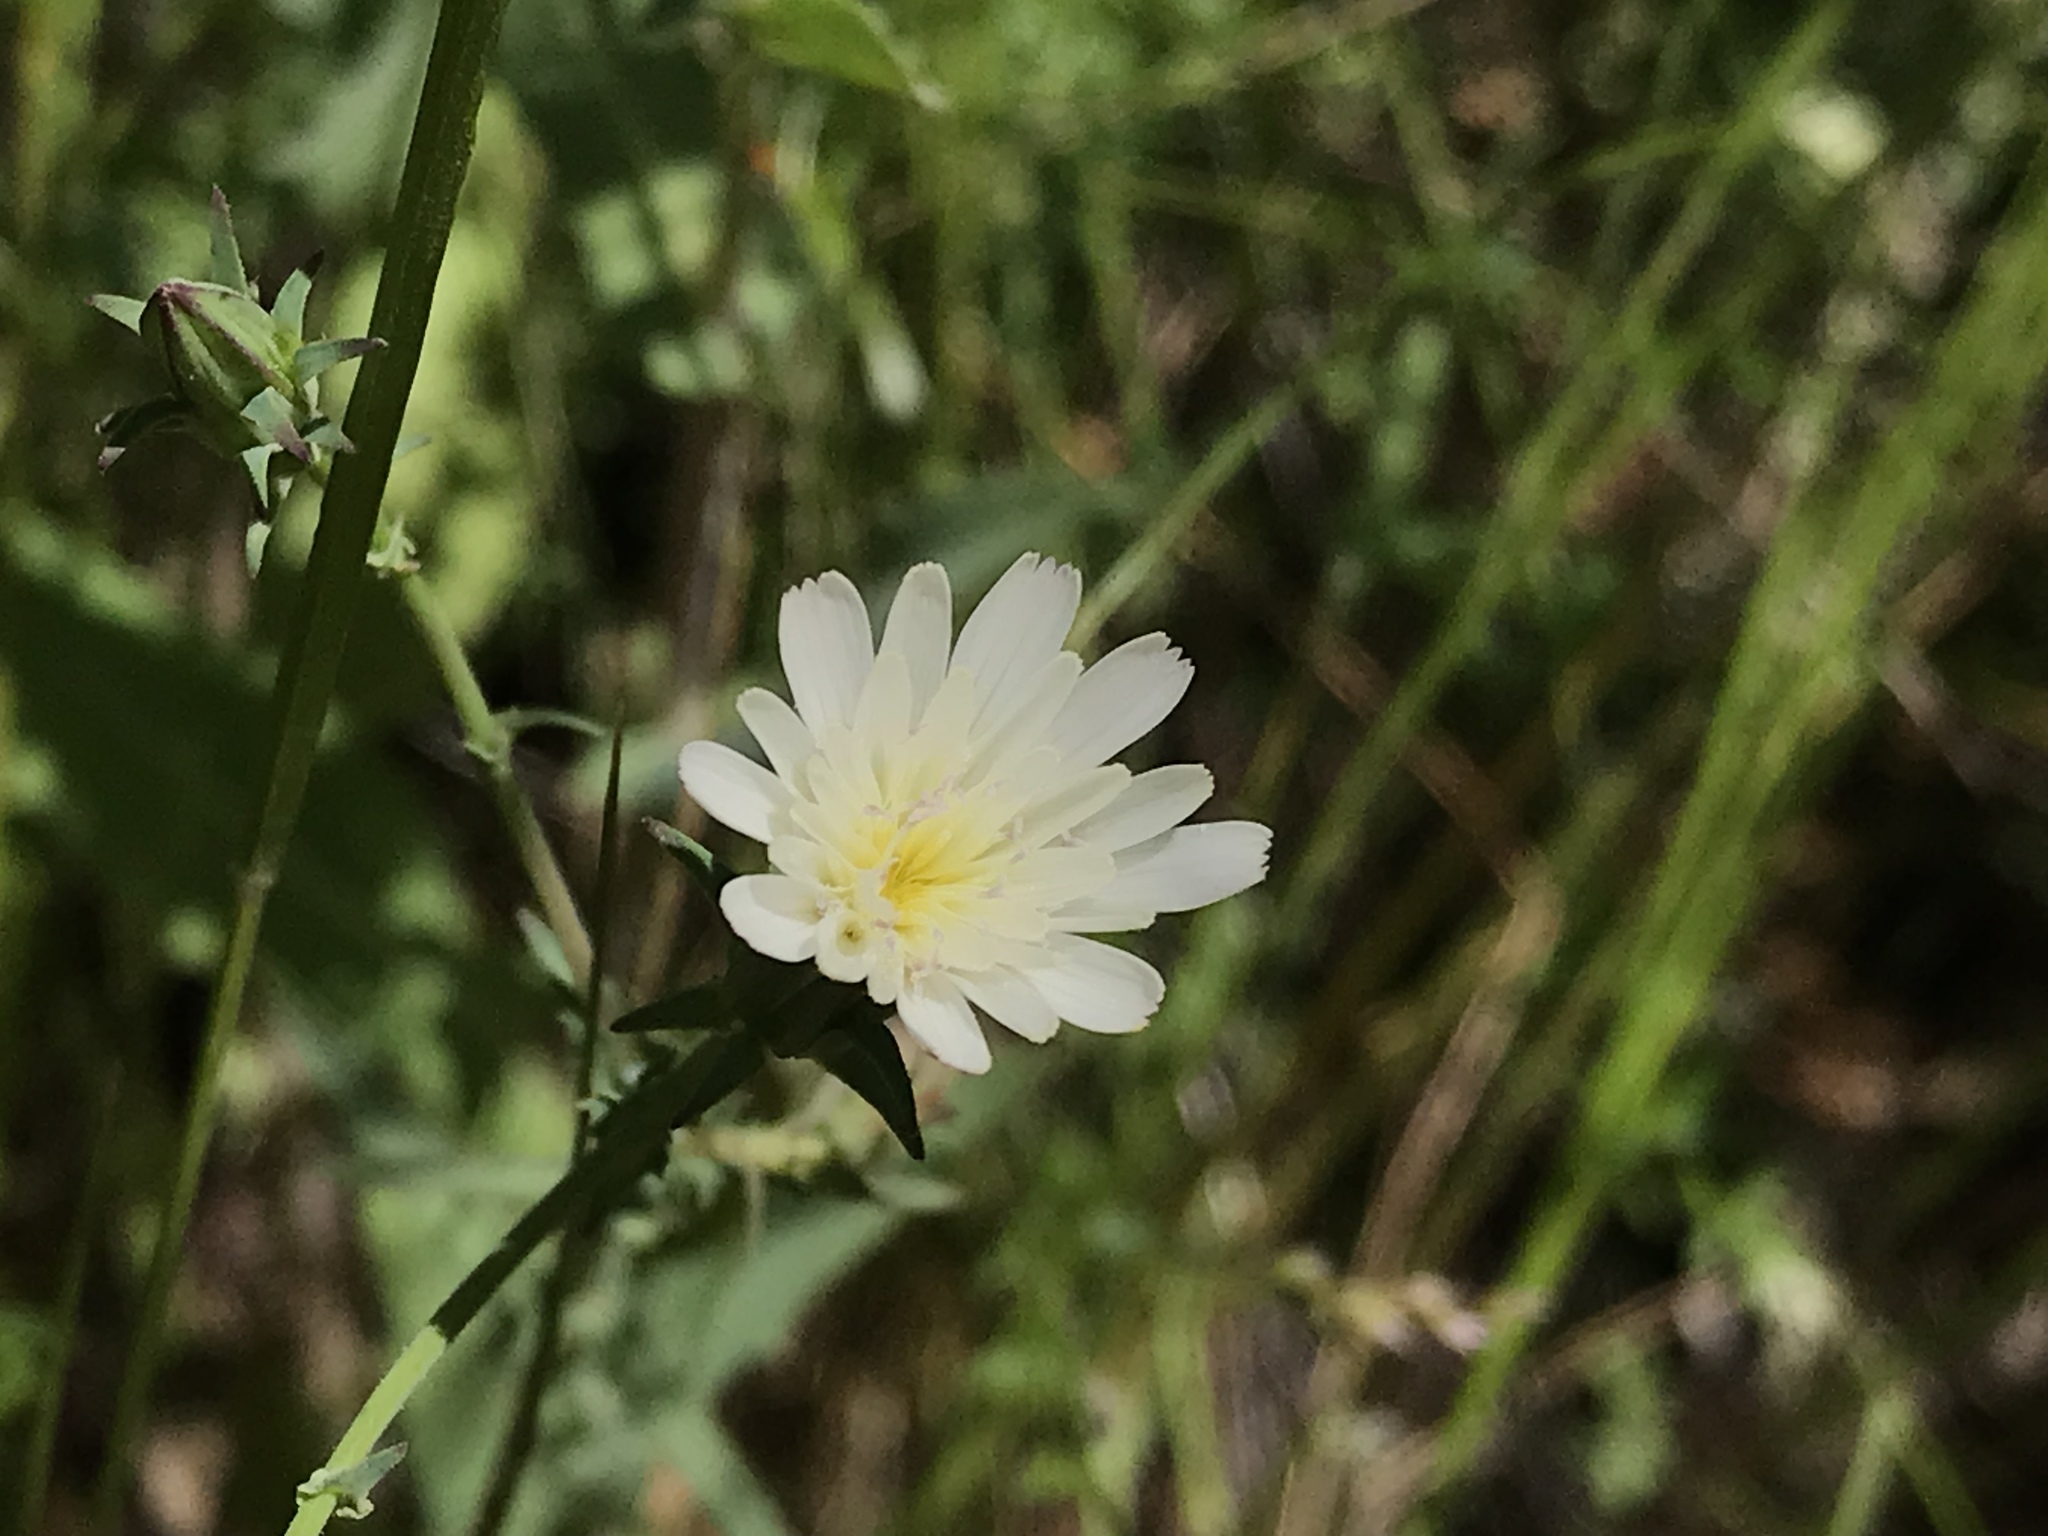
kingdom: Plantae
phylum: Tracheophyta
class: Magnoliopsida
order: Asterales
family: Asteraceae
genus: Rafinesquia
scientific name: Rafinesquia californica
